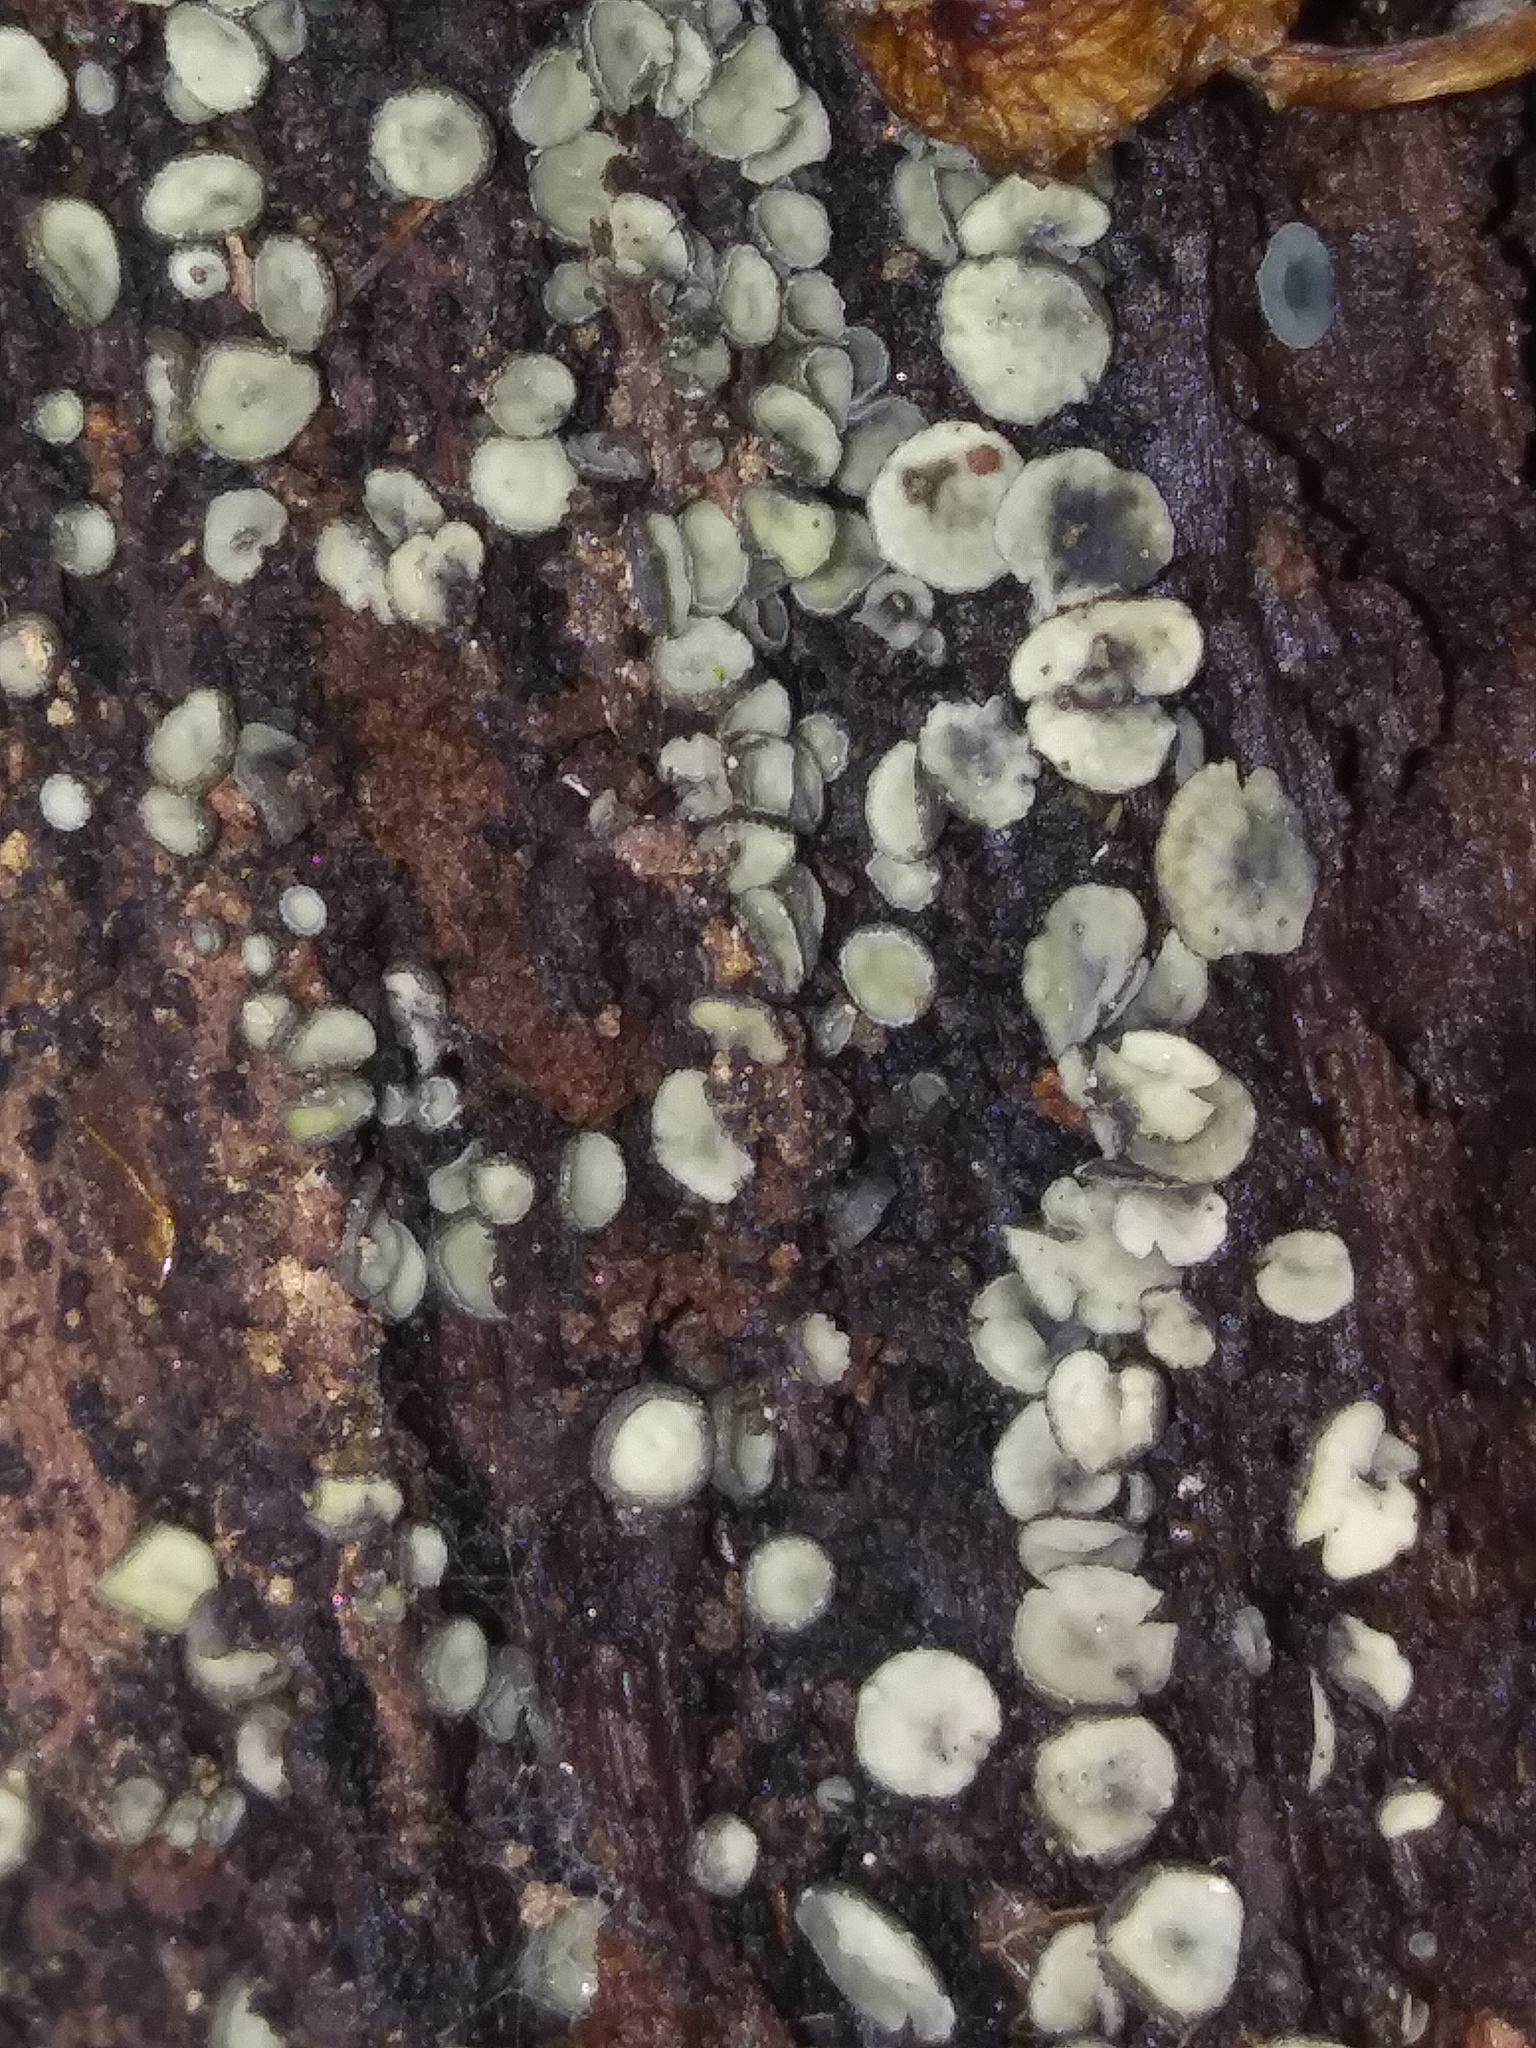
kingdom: Fungi
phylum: Ascomycota
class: Leotiomycetes
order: Helotiales
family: Chlorospleniaceae
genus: Chlorosplenium
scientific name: Chlorosplenium chlora
